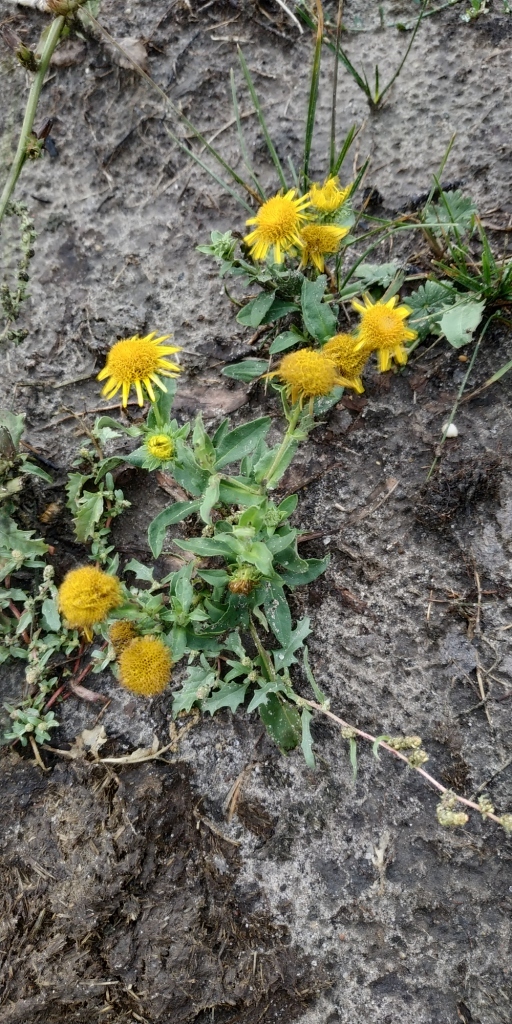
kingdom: Plantae
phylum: Tracheophyta
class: Magnoliopsida
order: Asterales
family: Asteraceae
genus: Pentanema
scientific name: Pentanema britannicum
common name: British elecampane
